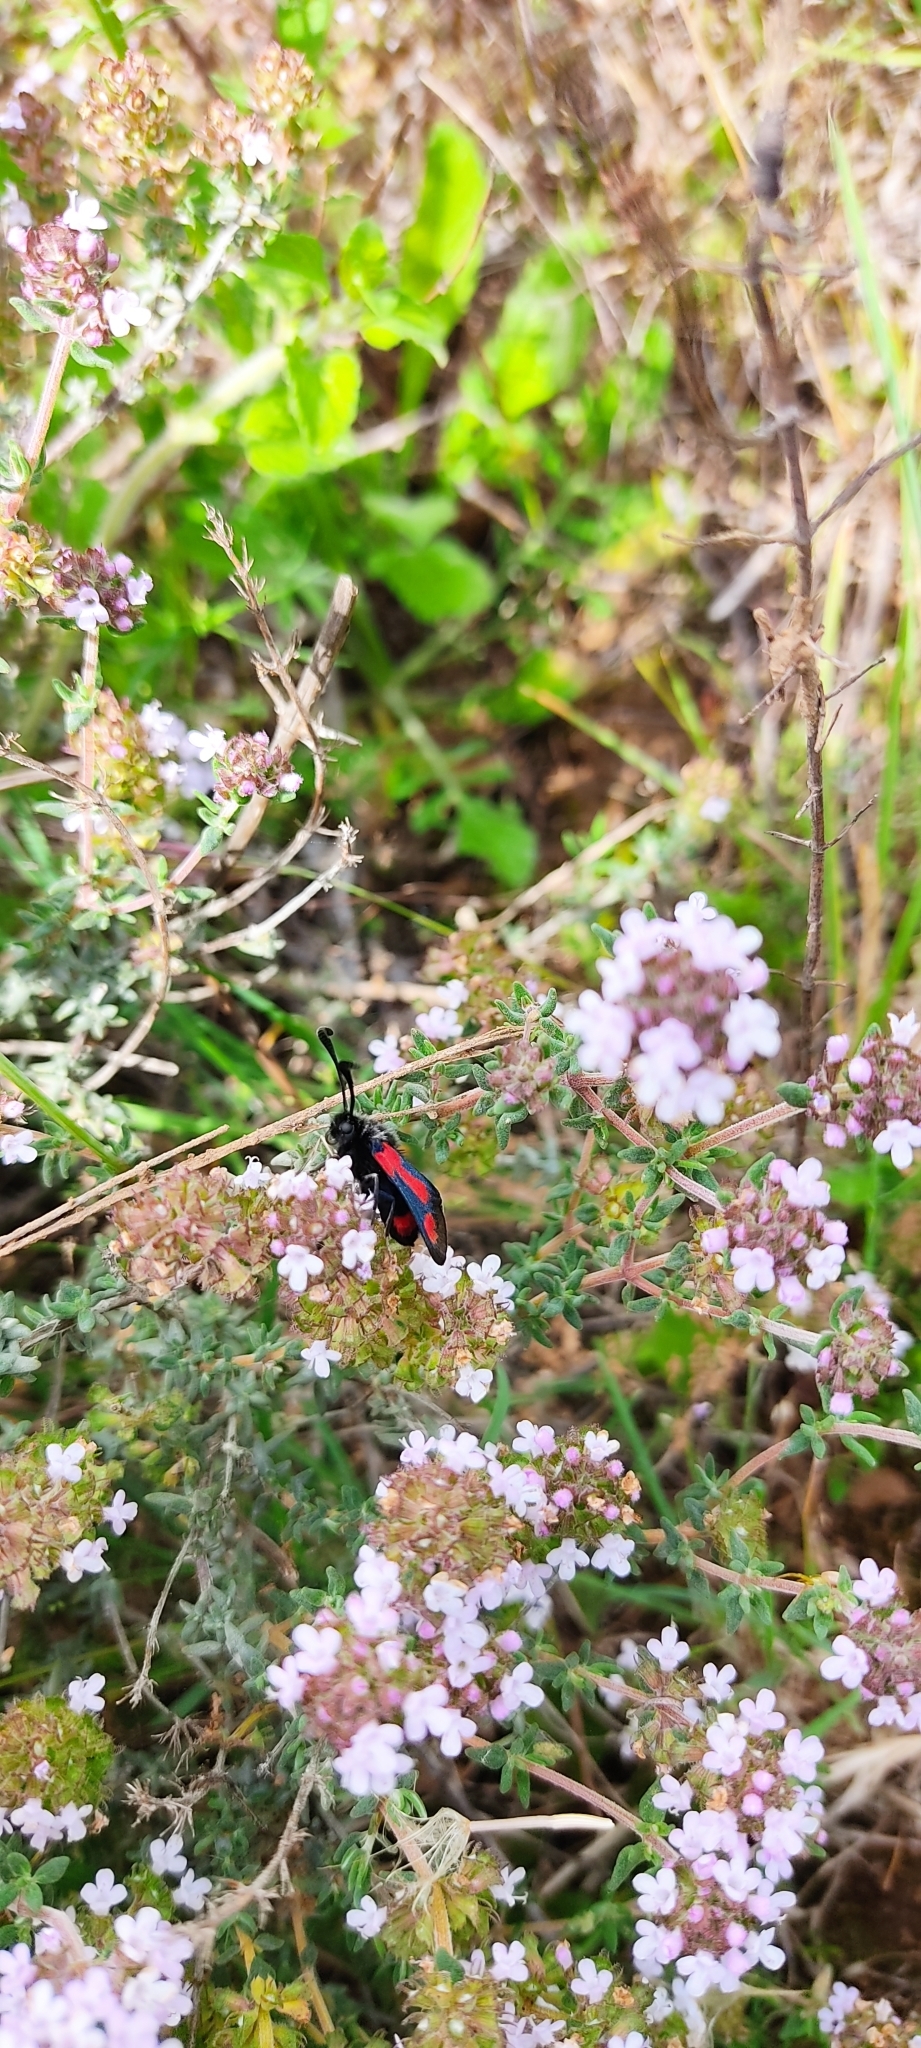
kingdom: Animalia
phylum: Arthropoda
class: Insecta
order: Lepidoptera
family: Zygaenidae
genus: Zygaena
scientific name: Zygaena sarpedon
